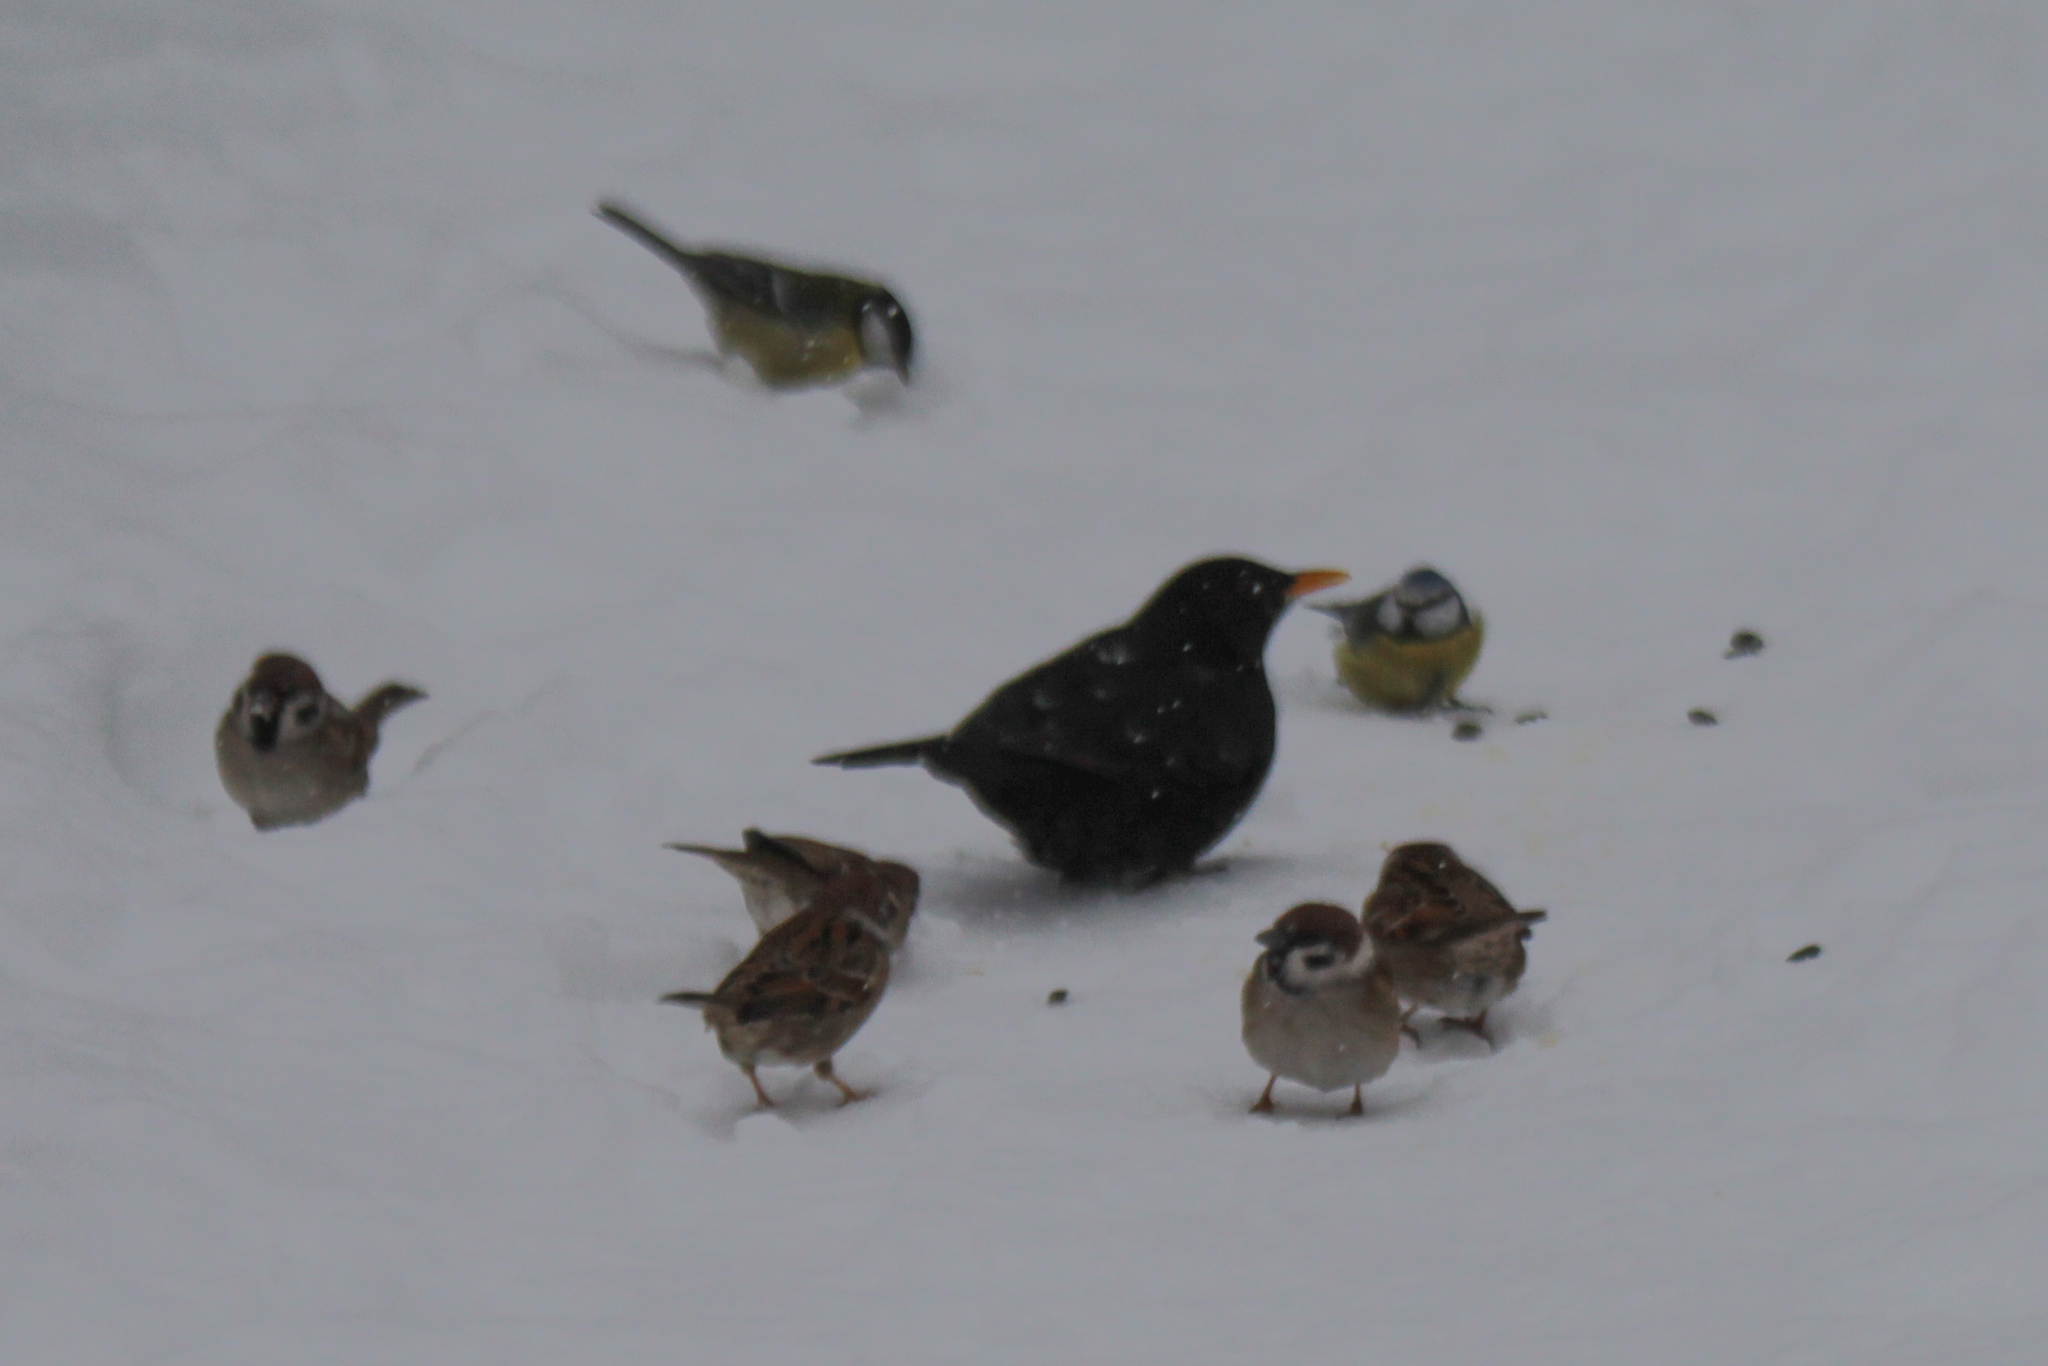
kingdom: Animalia
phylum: Chordata
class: Aves
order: Passeriformes
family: Turdidae
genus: Turdus
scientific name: Turdus merula
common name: Common blackbird
